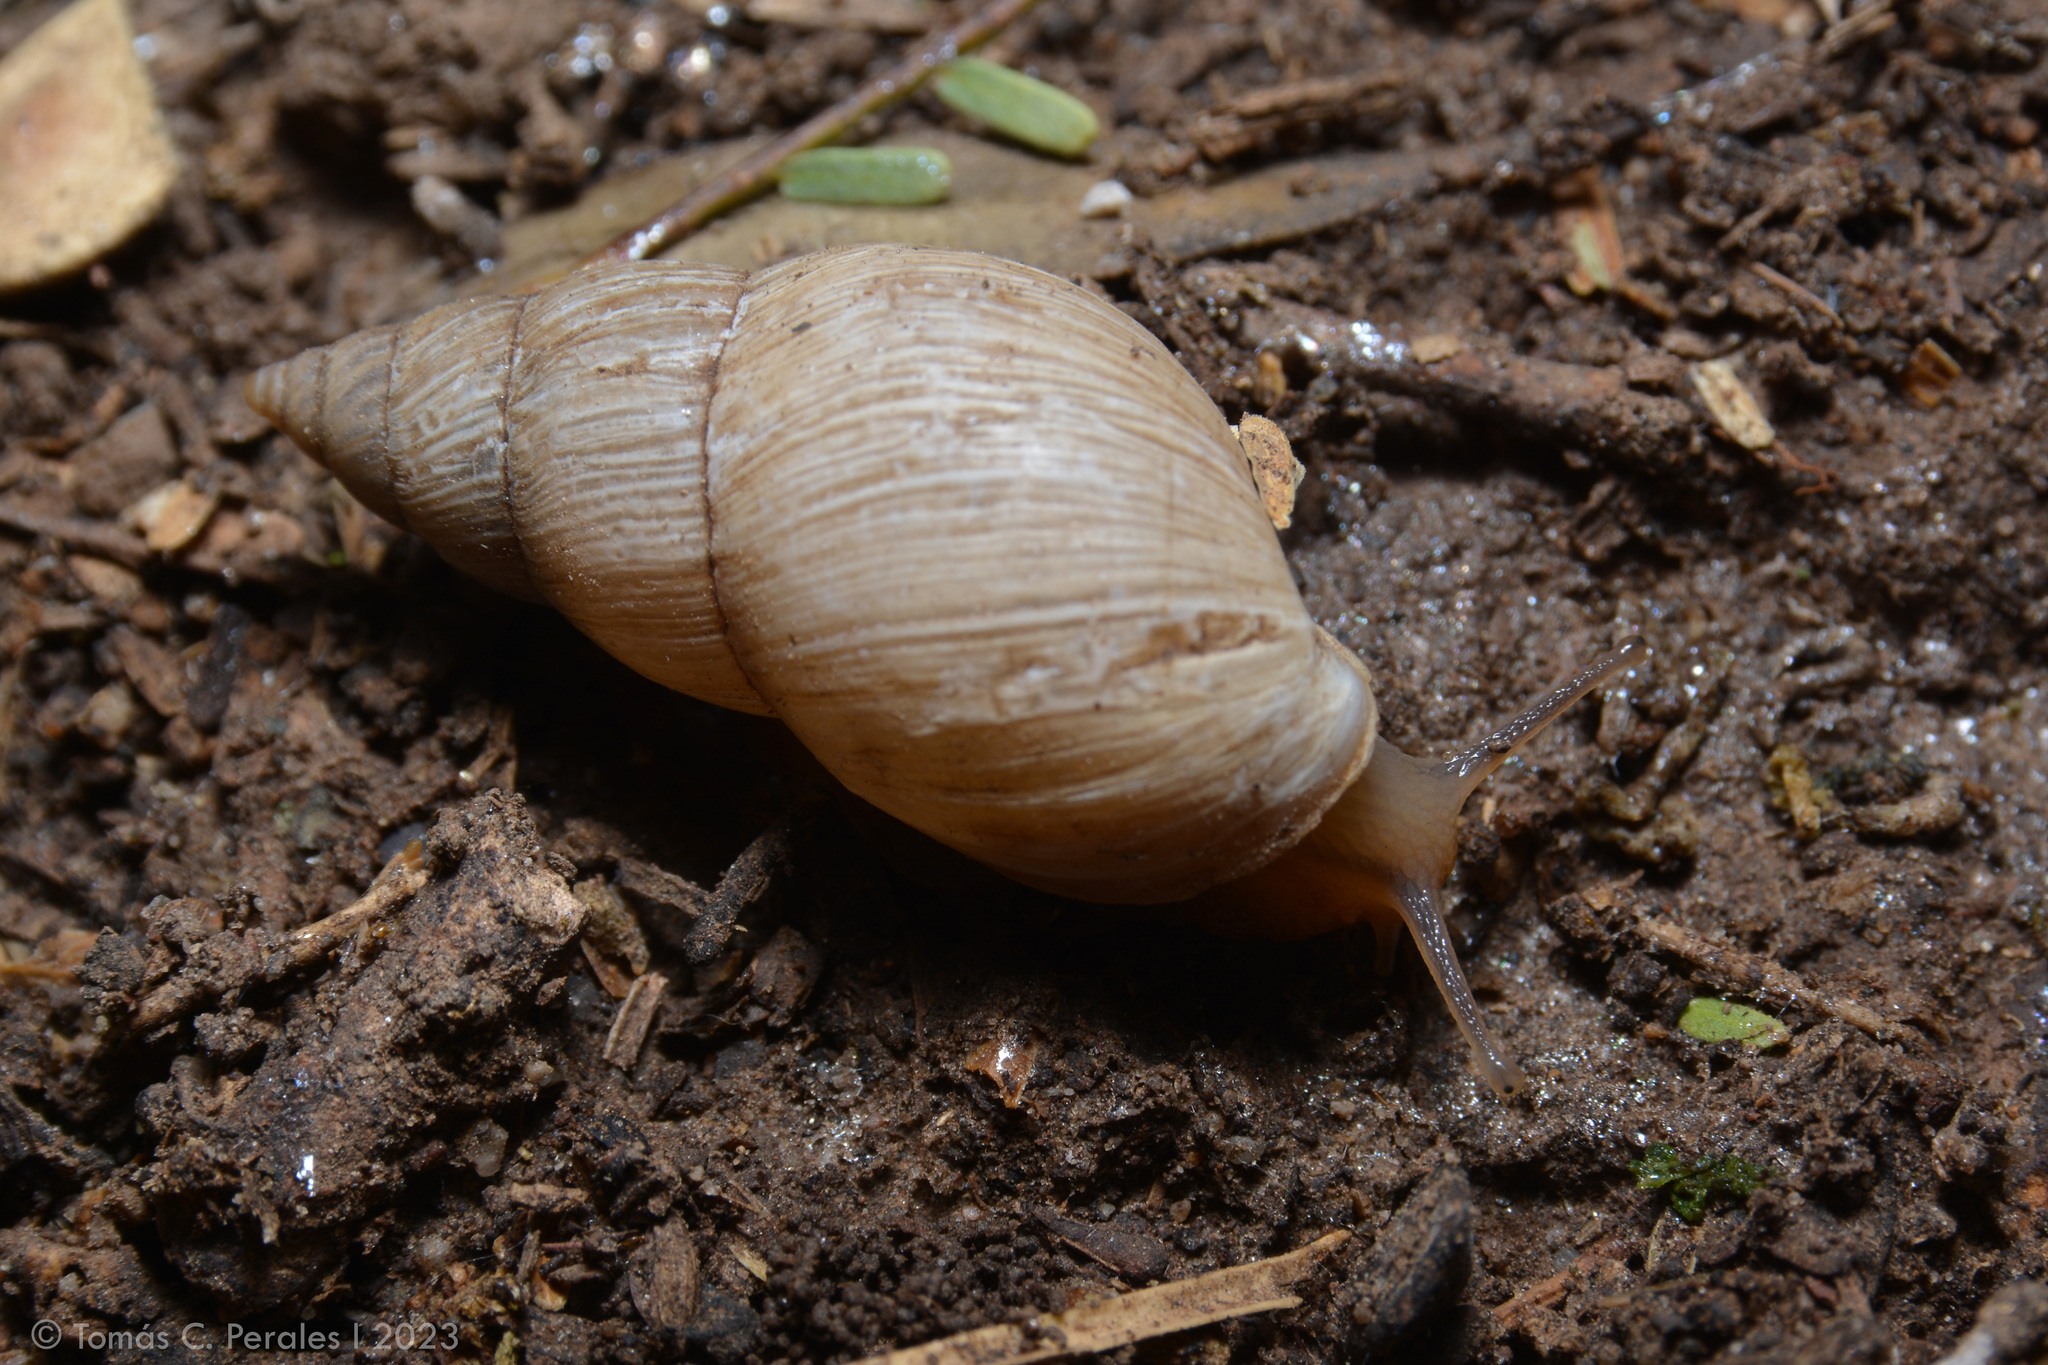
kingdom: Animalia
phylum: Mollusca
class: Gastropoda
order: Stylommatophora
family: Bulimulidae
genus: Bulimulus
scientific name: Bulimulus bonariensis
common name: Snail
